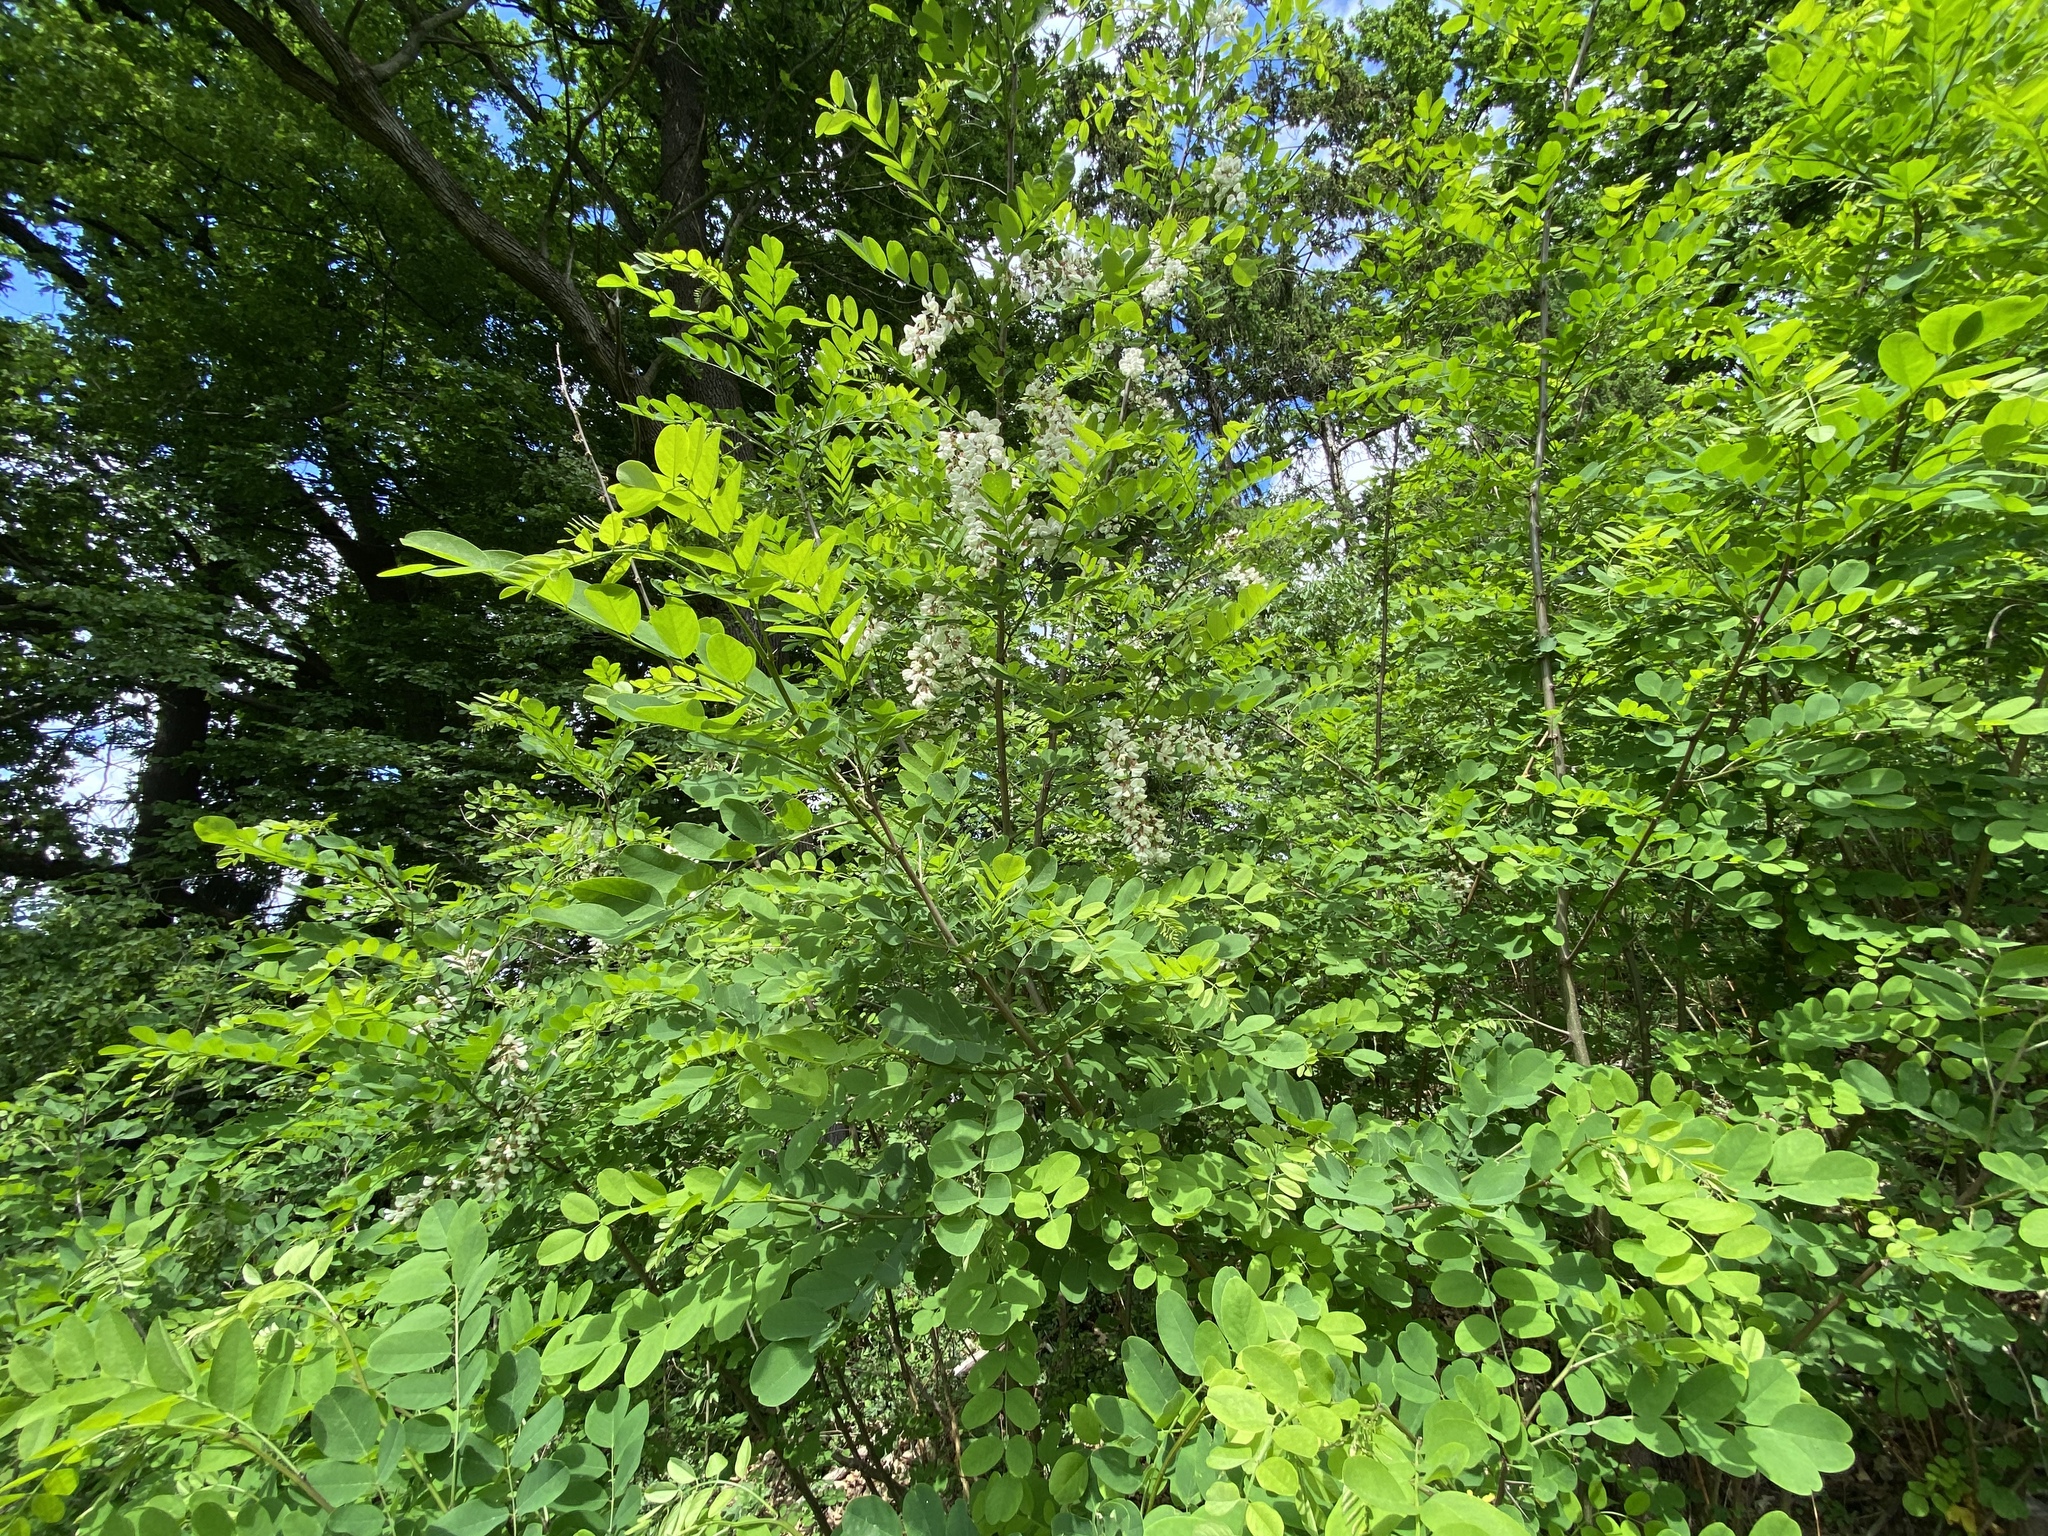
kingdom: Plantae
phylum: Tracheophyta
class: Magnoliopsida
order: Fabales
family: Fabaceae
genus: Robinia
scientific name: Robinia pseudoacacia
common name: Black locust
